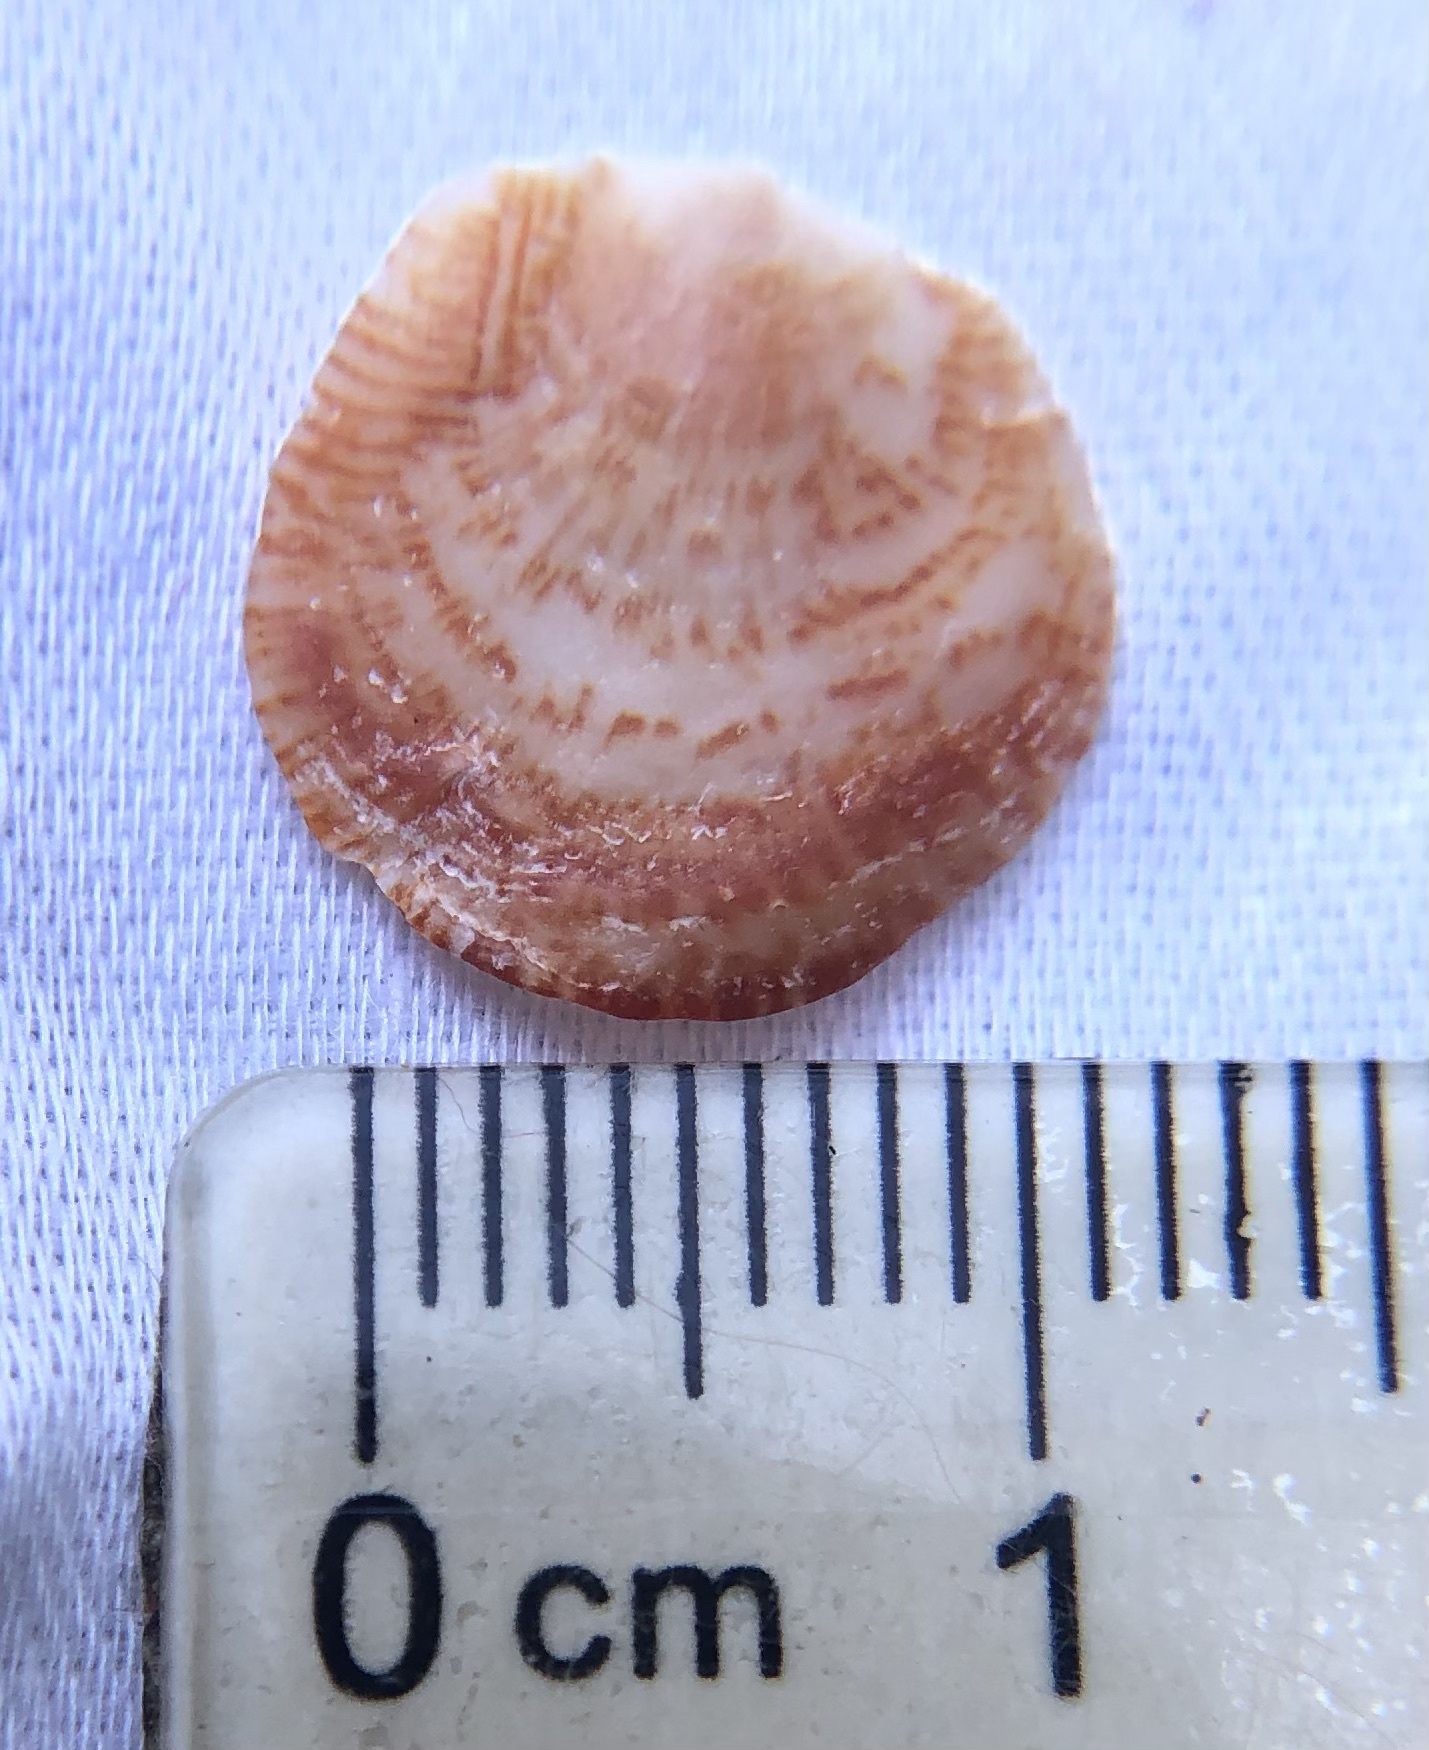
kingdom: Animalia
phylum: Mollusca
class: Bivalvia
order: Venerida
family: Chamidae
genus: Chama
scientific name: Chama congregata
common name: Corrugate jewelbox
